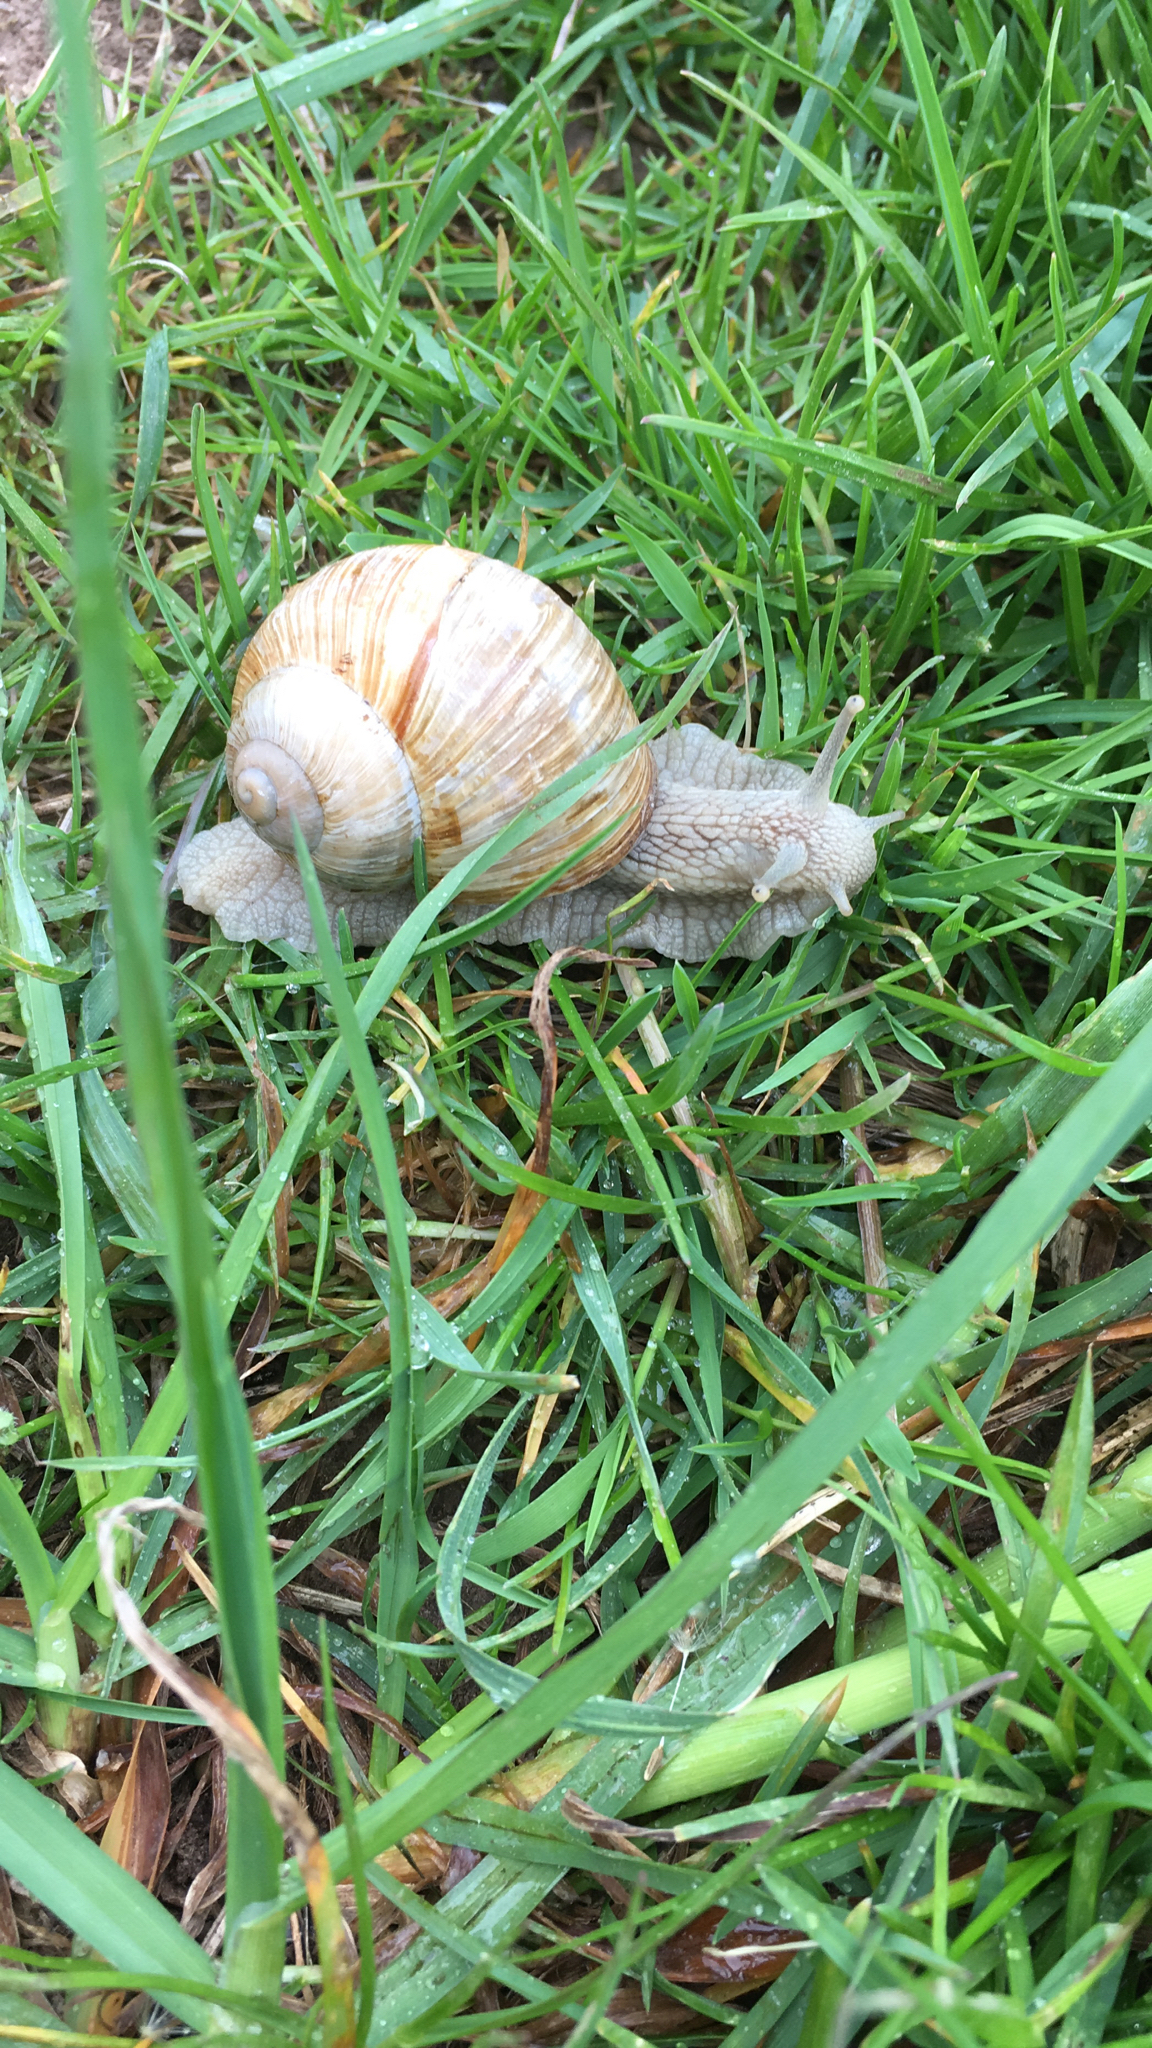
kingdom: Animalia
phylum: Mollusca
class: Gastropoda
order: Stylommatophora
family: Helicidae
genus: Helix
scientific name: Helix pomatia
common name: Roman snail
